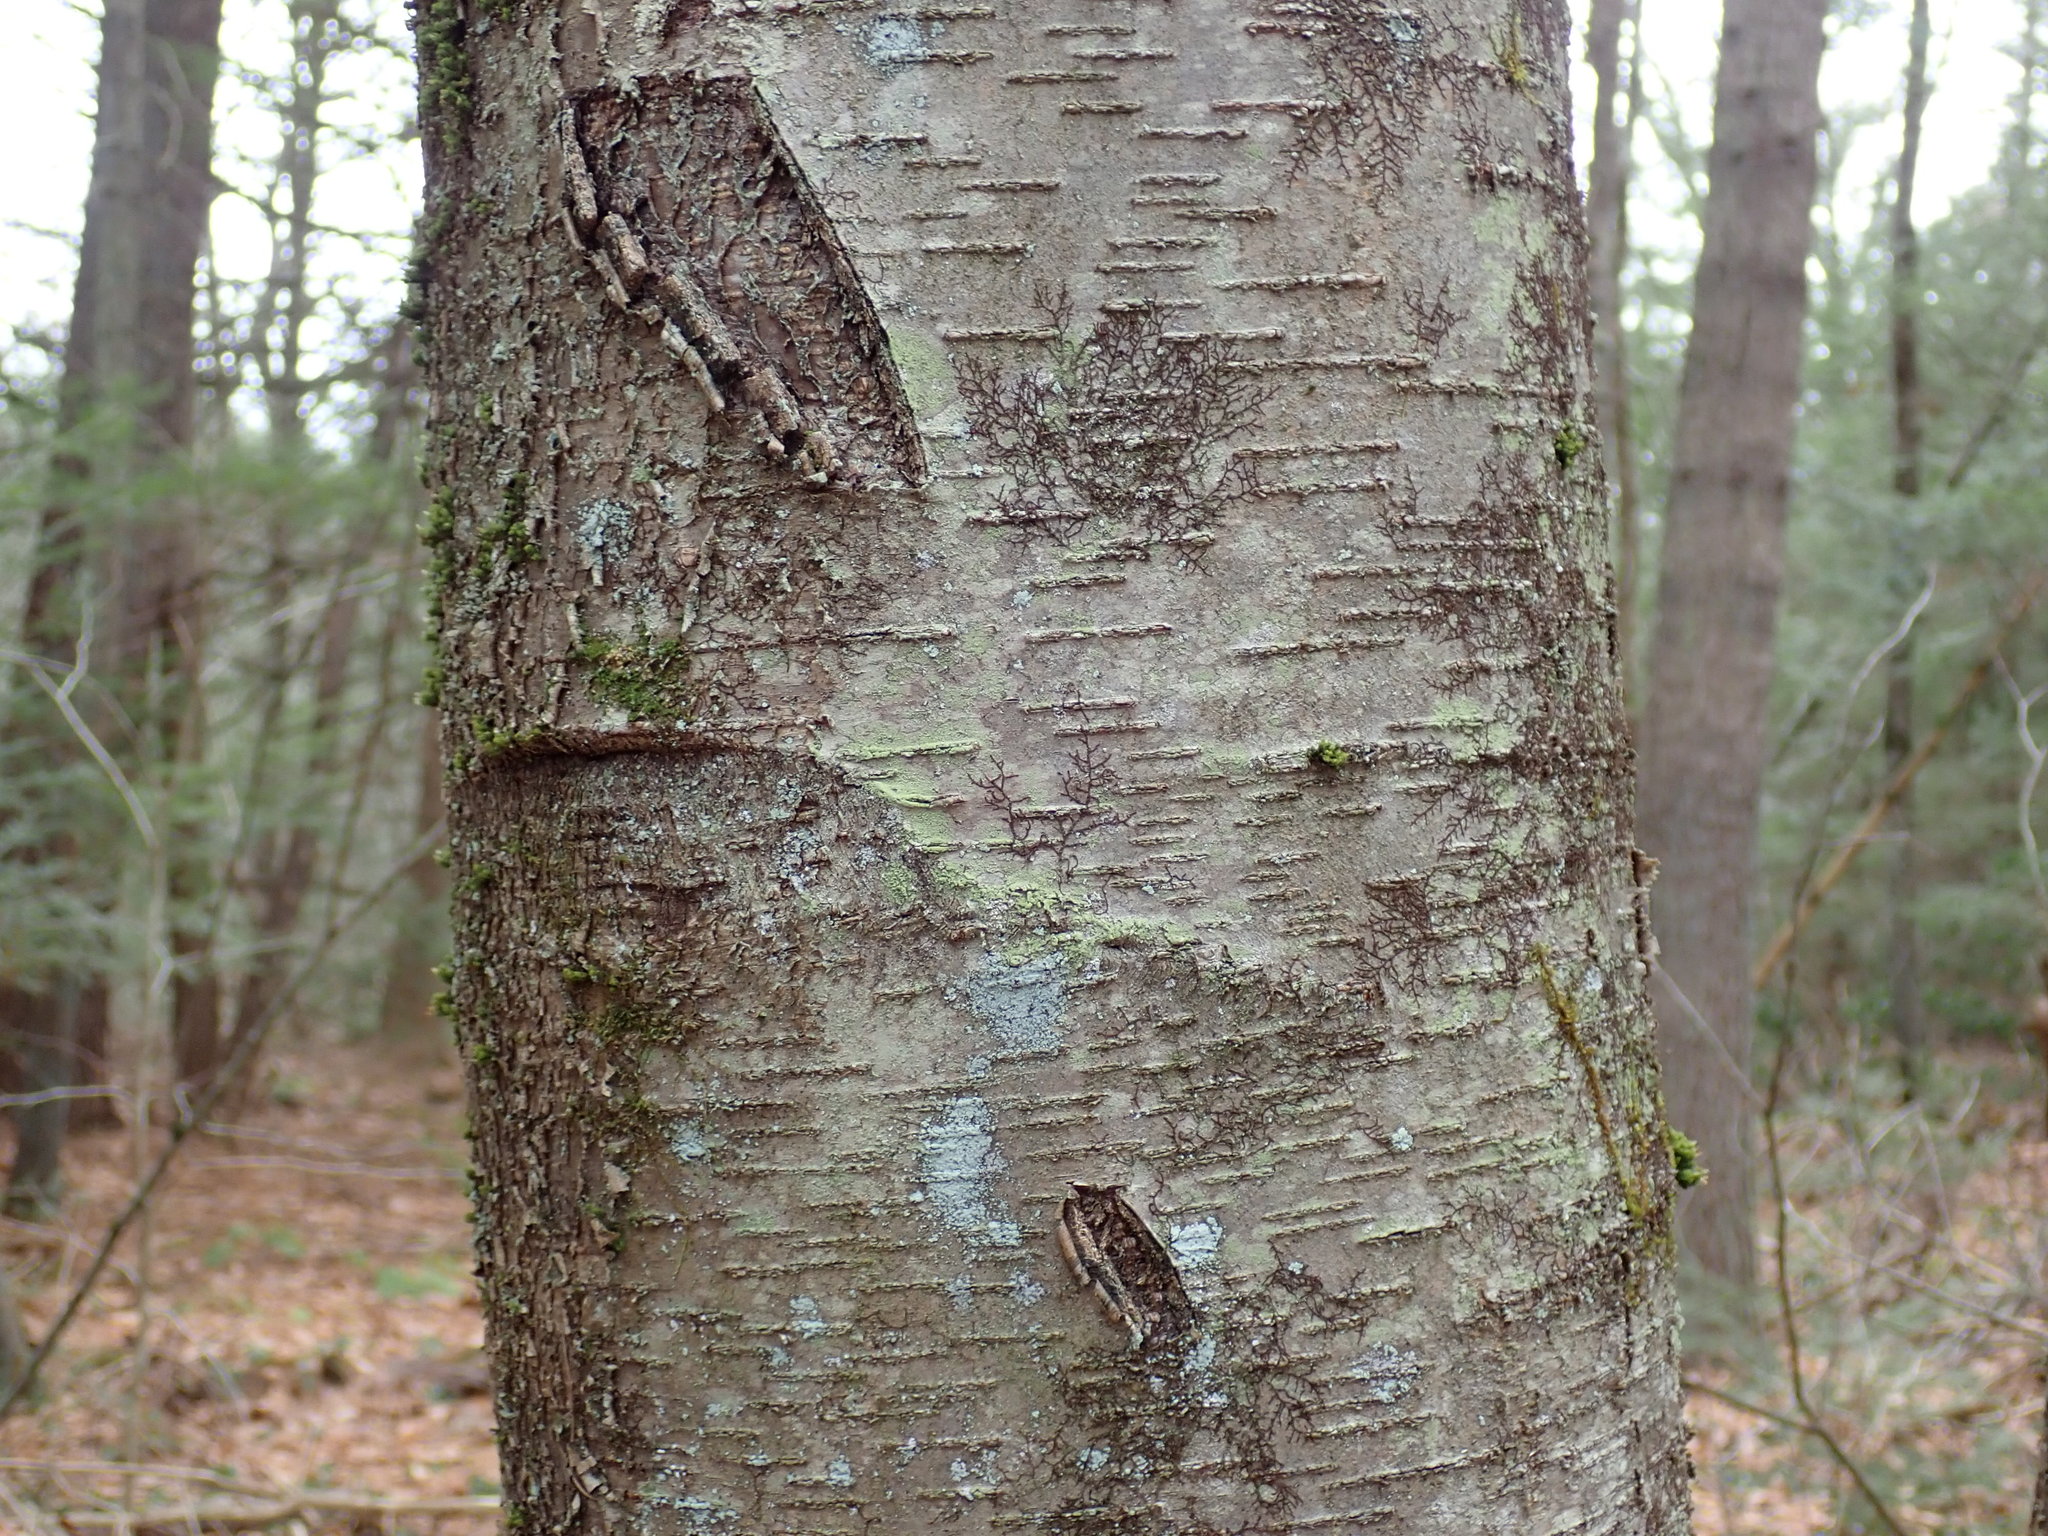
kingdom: Plantae
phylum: Tracheophyta
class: Magnoliopsida
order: Fagales
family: Betulaceae
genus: Betula
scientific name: Betula lenta
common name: Black birch
